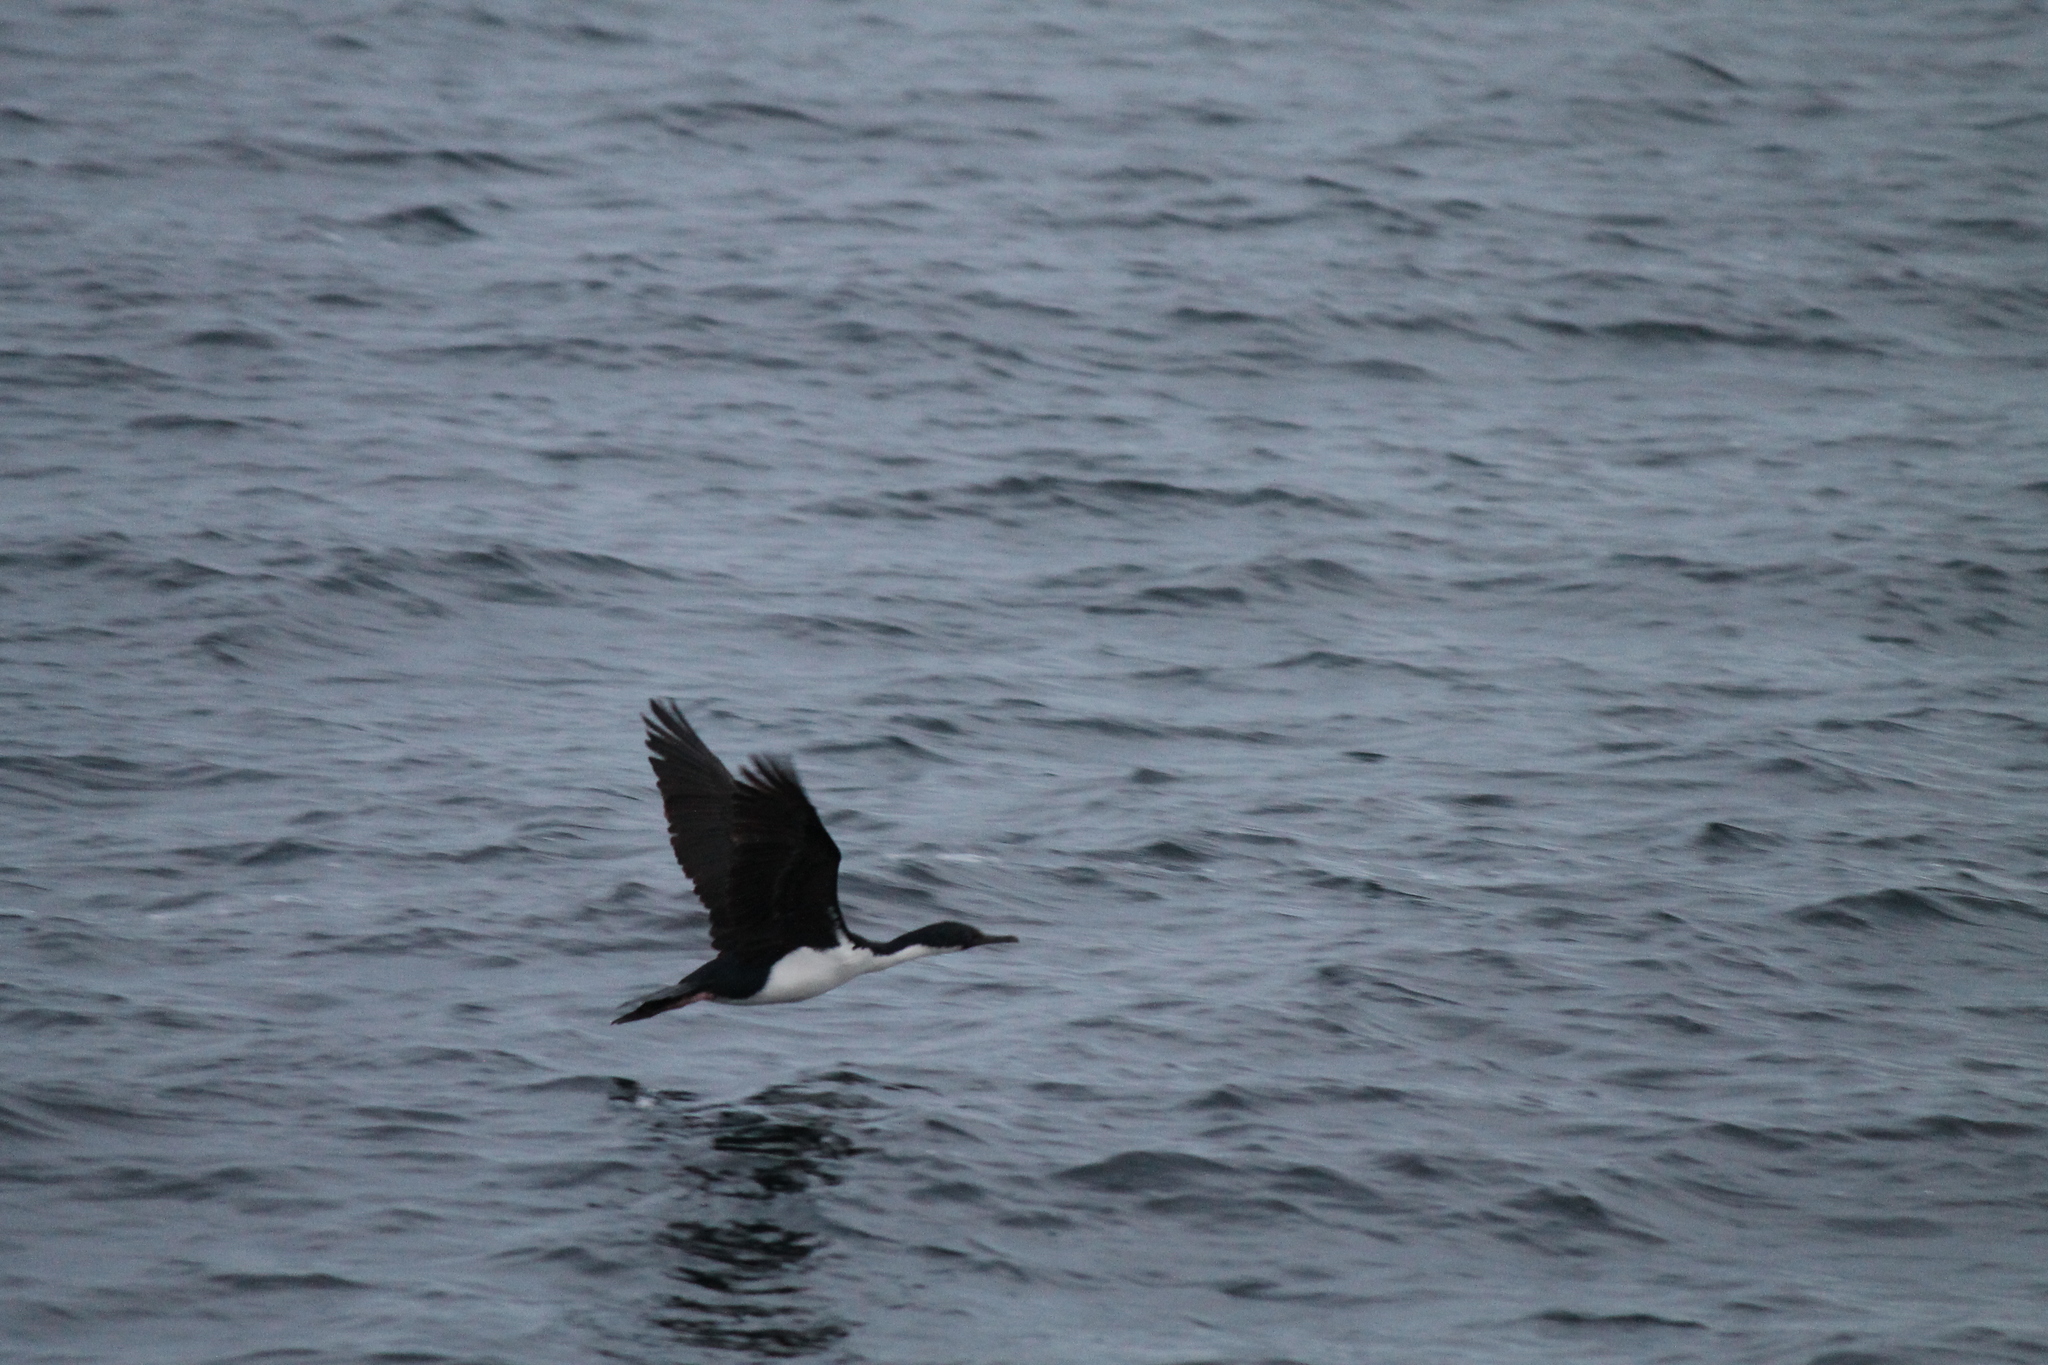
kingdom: Animalia
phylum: Chordata
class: Aves
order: Suliformes
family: Phalacrocoracidae
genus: Leucocarbo
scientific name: Leucocarbo atriceps
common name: Imperial shag
